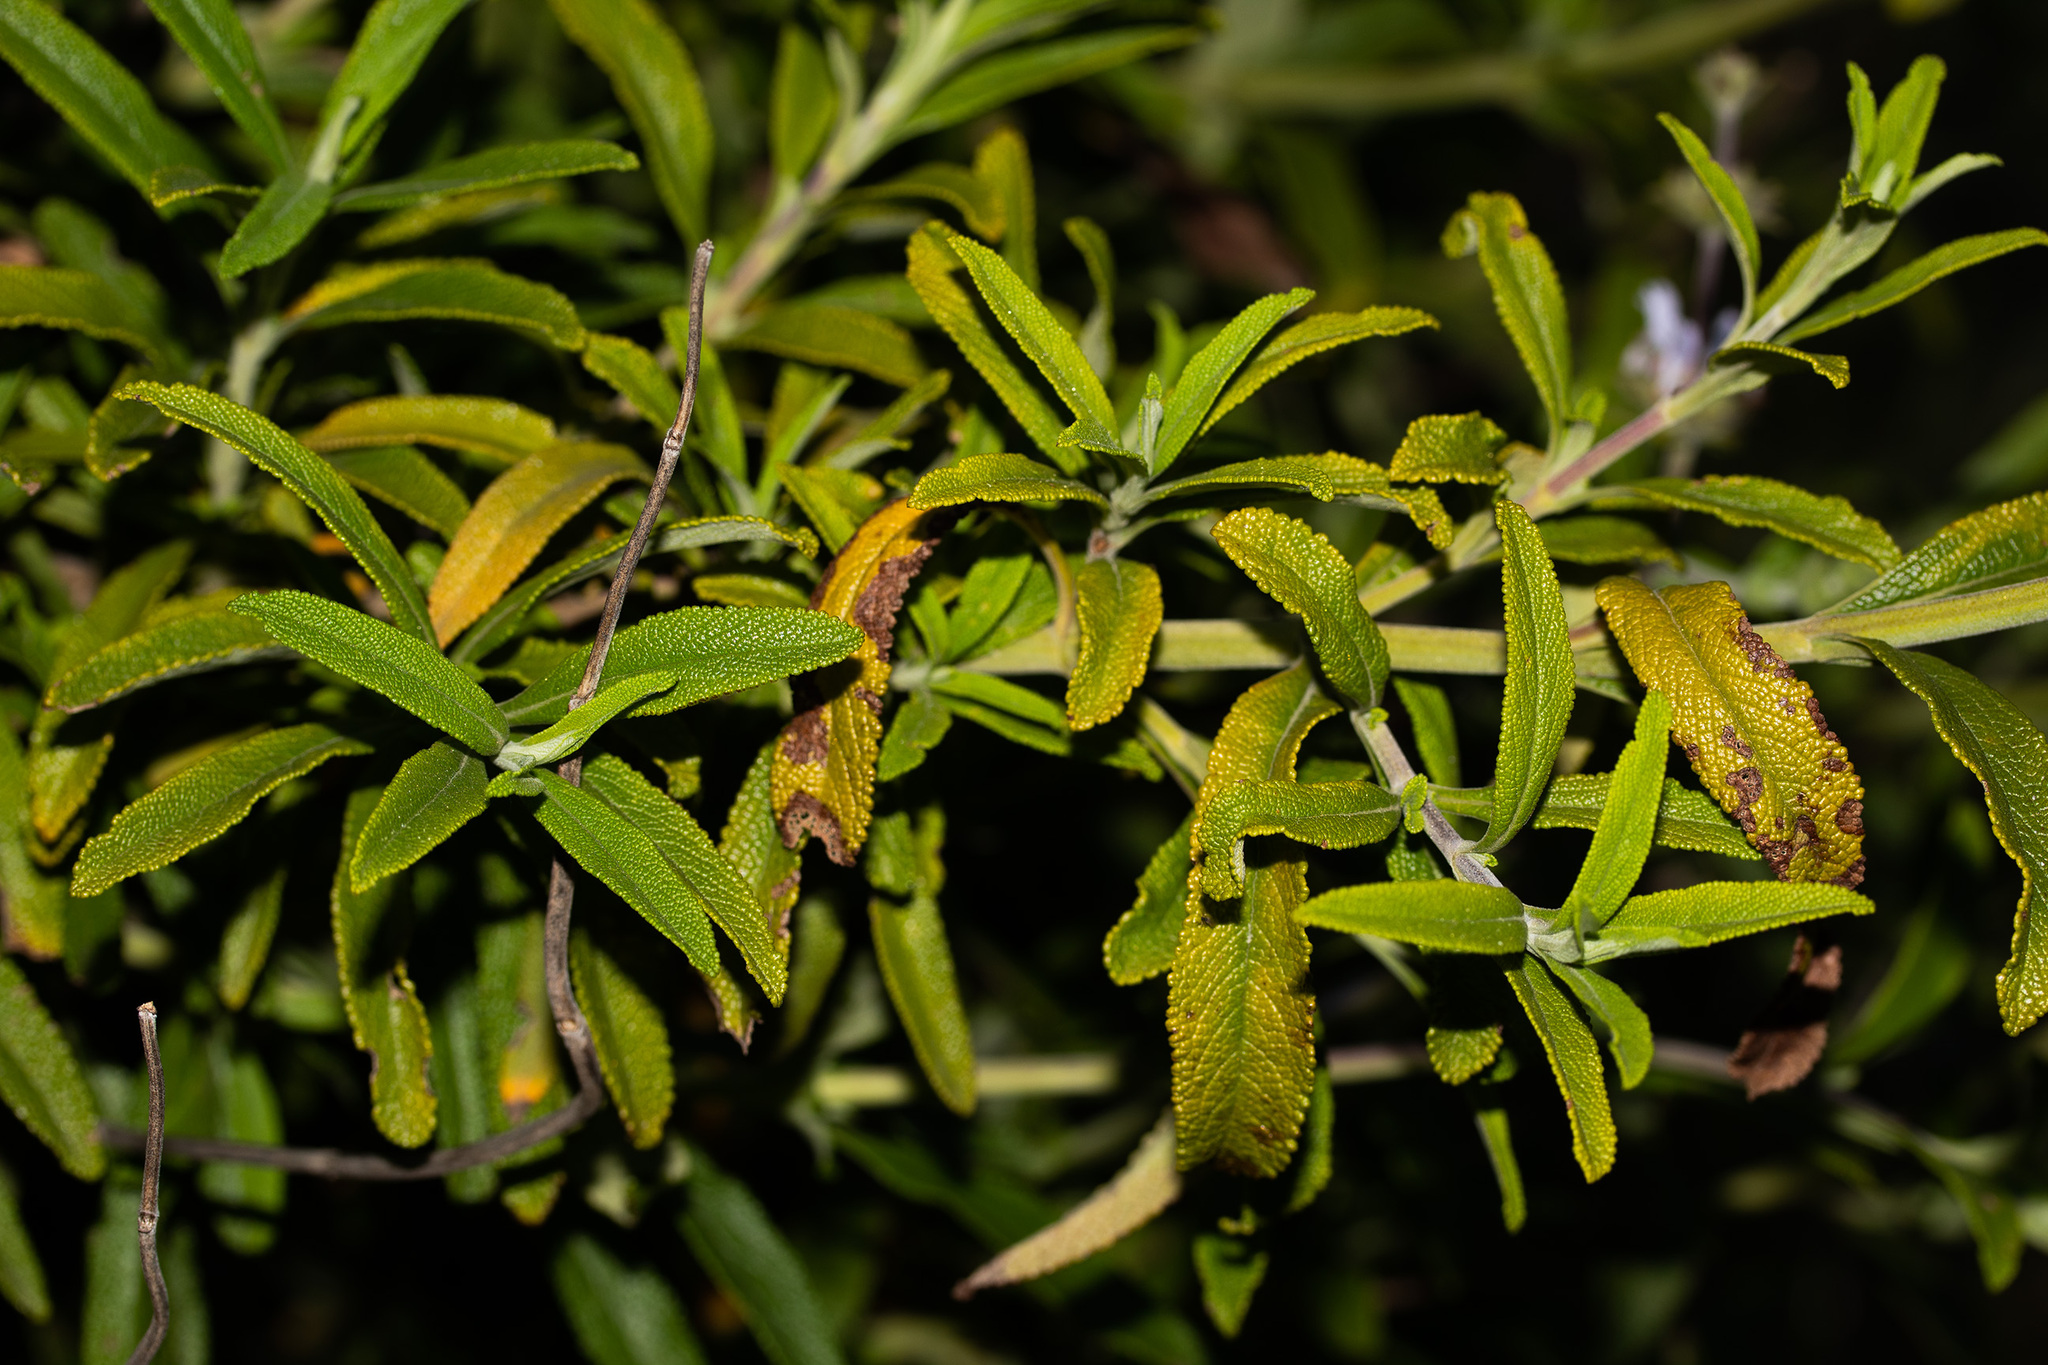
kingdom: Plantae
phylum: Tracheophyta
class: Magnoliopsida
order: Lamiales
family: Lamiaceae
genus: Salvia
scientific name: Salvia mellifera
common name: Black sage
